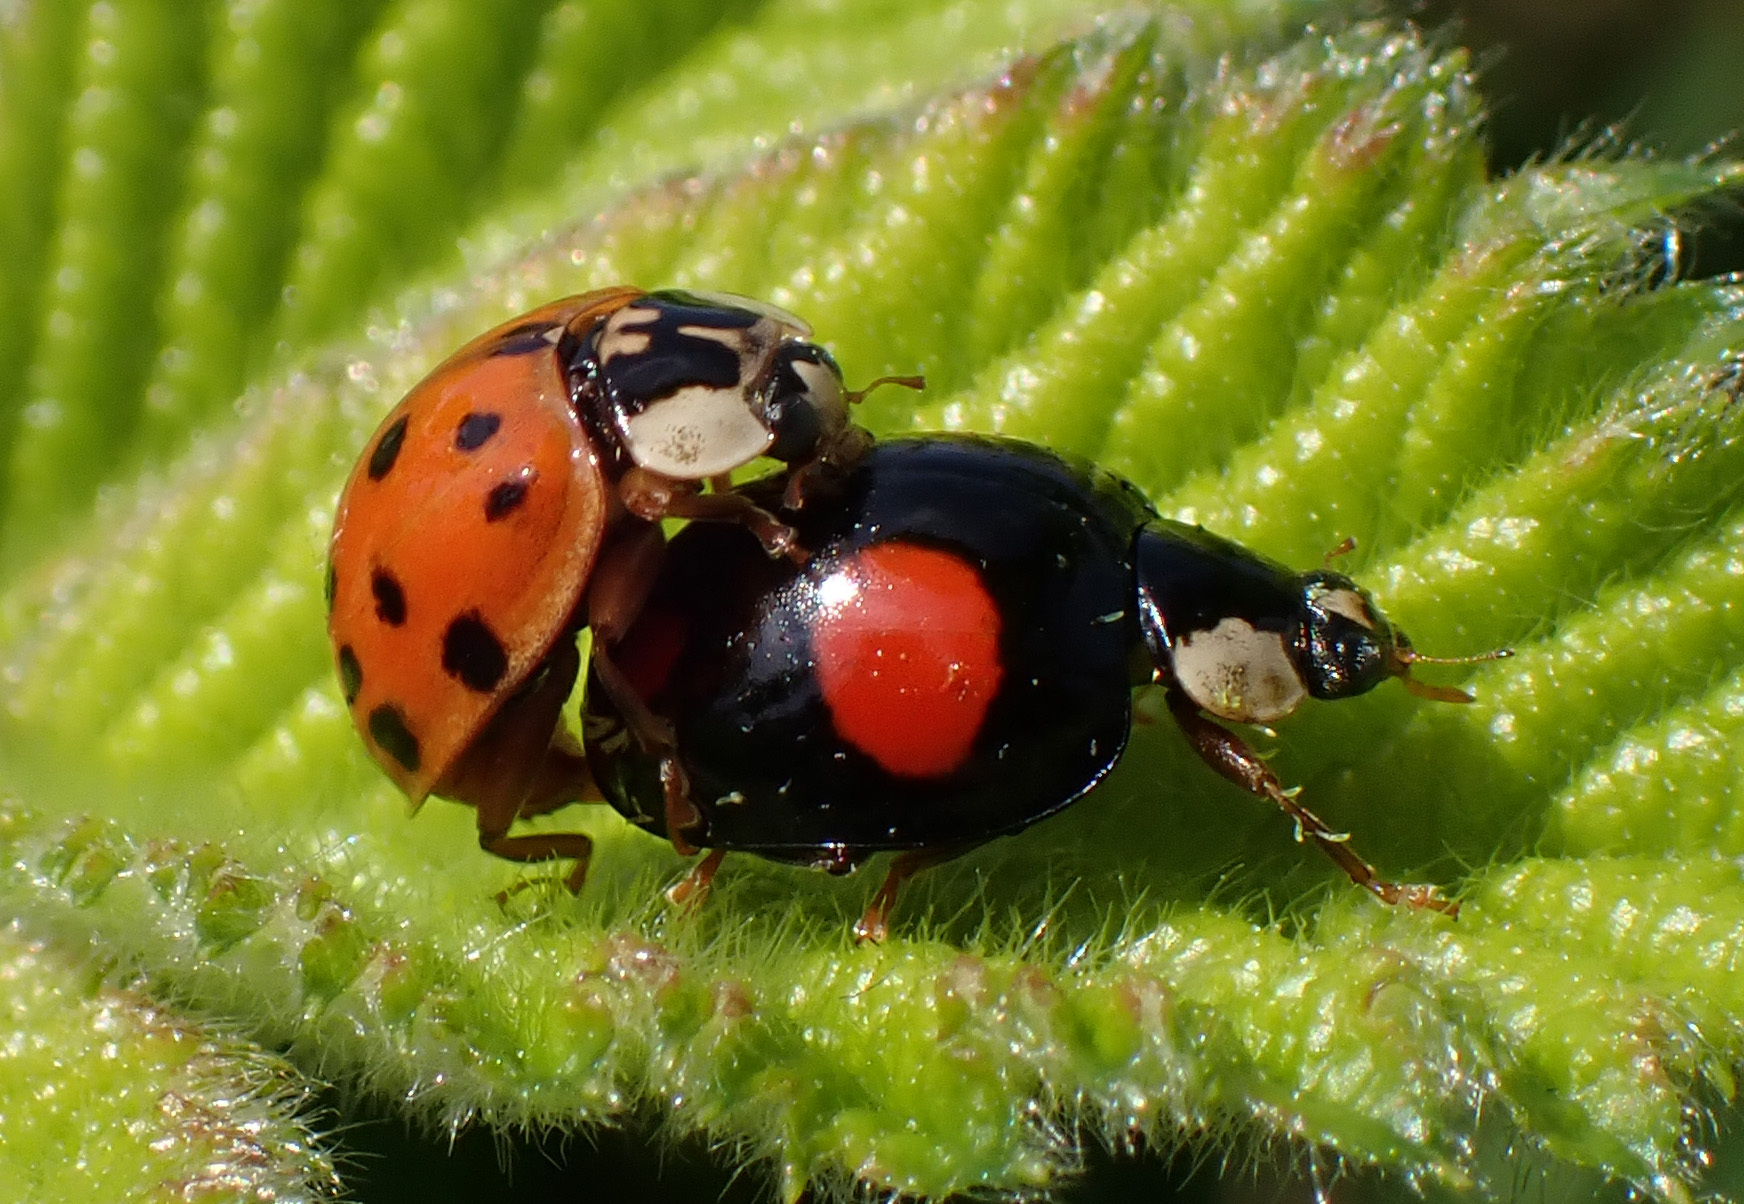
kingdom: Animalia
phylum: Arthropoda
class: Insecta
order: Coleoptera
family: Coccinellidae
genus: Harmonia
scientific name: Harmonia axyridis
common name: Harlequin ladybird
